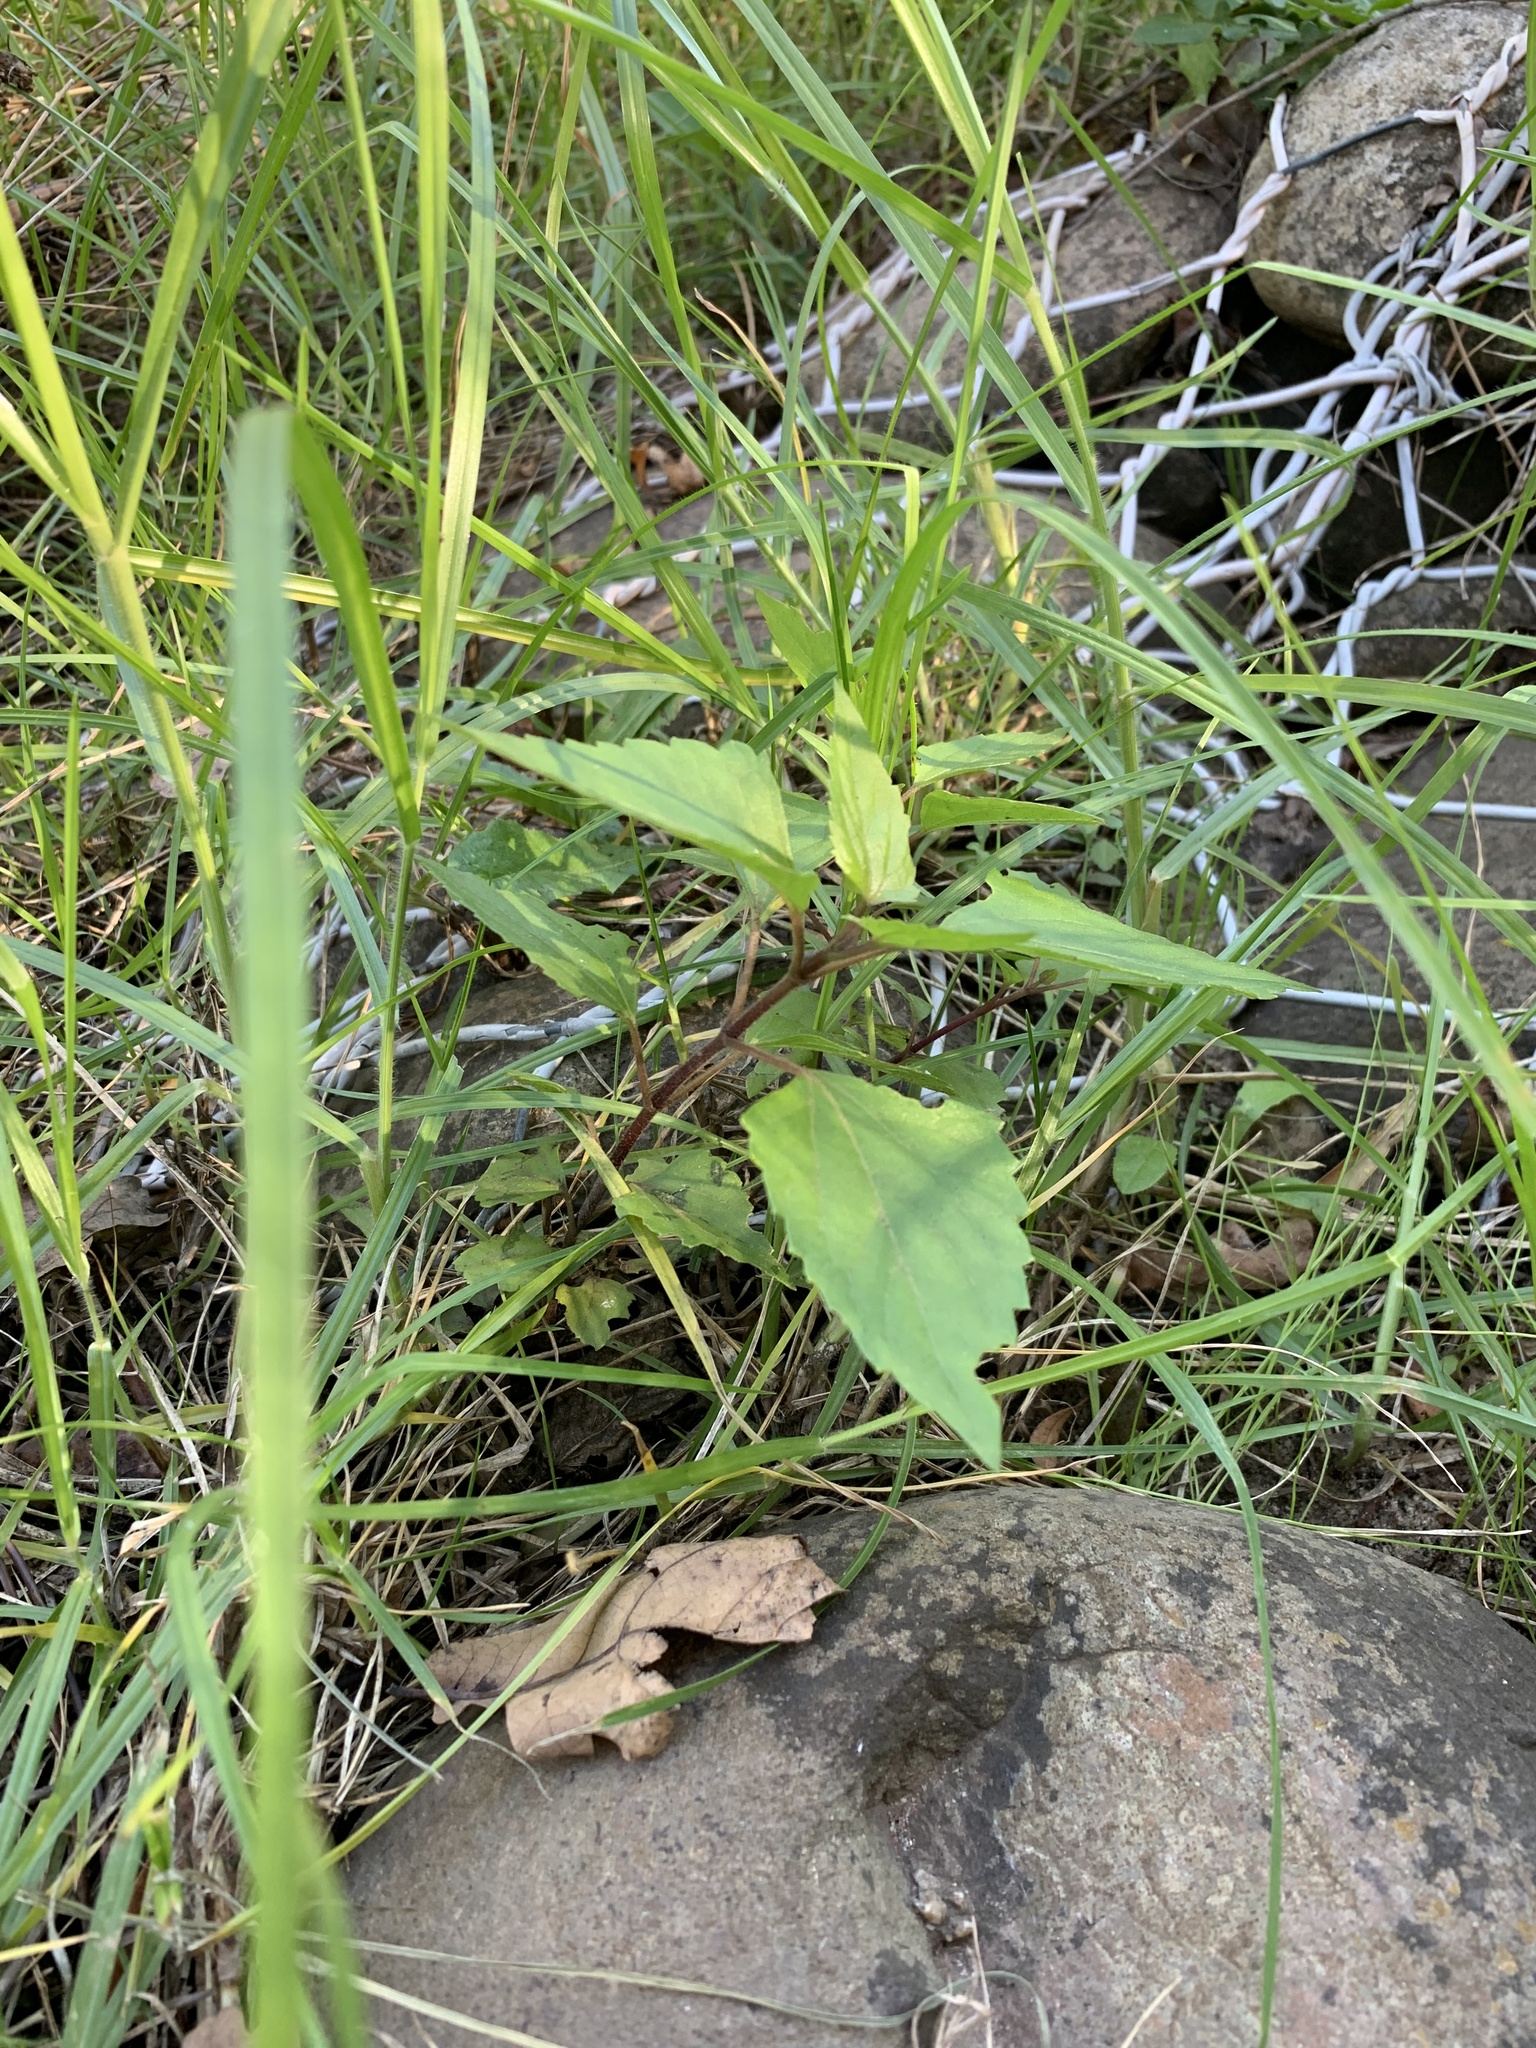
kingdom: Plantae
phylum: Tracheophyta
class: Magnoliopsida
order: Asterales
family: Asteraceae
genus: Ageratina
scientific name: Ageratina adenophora
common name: Sticky snakeroot
